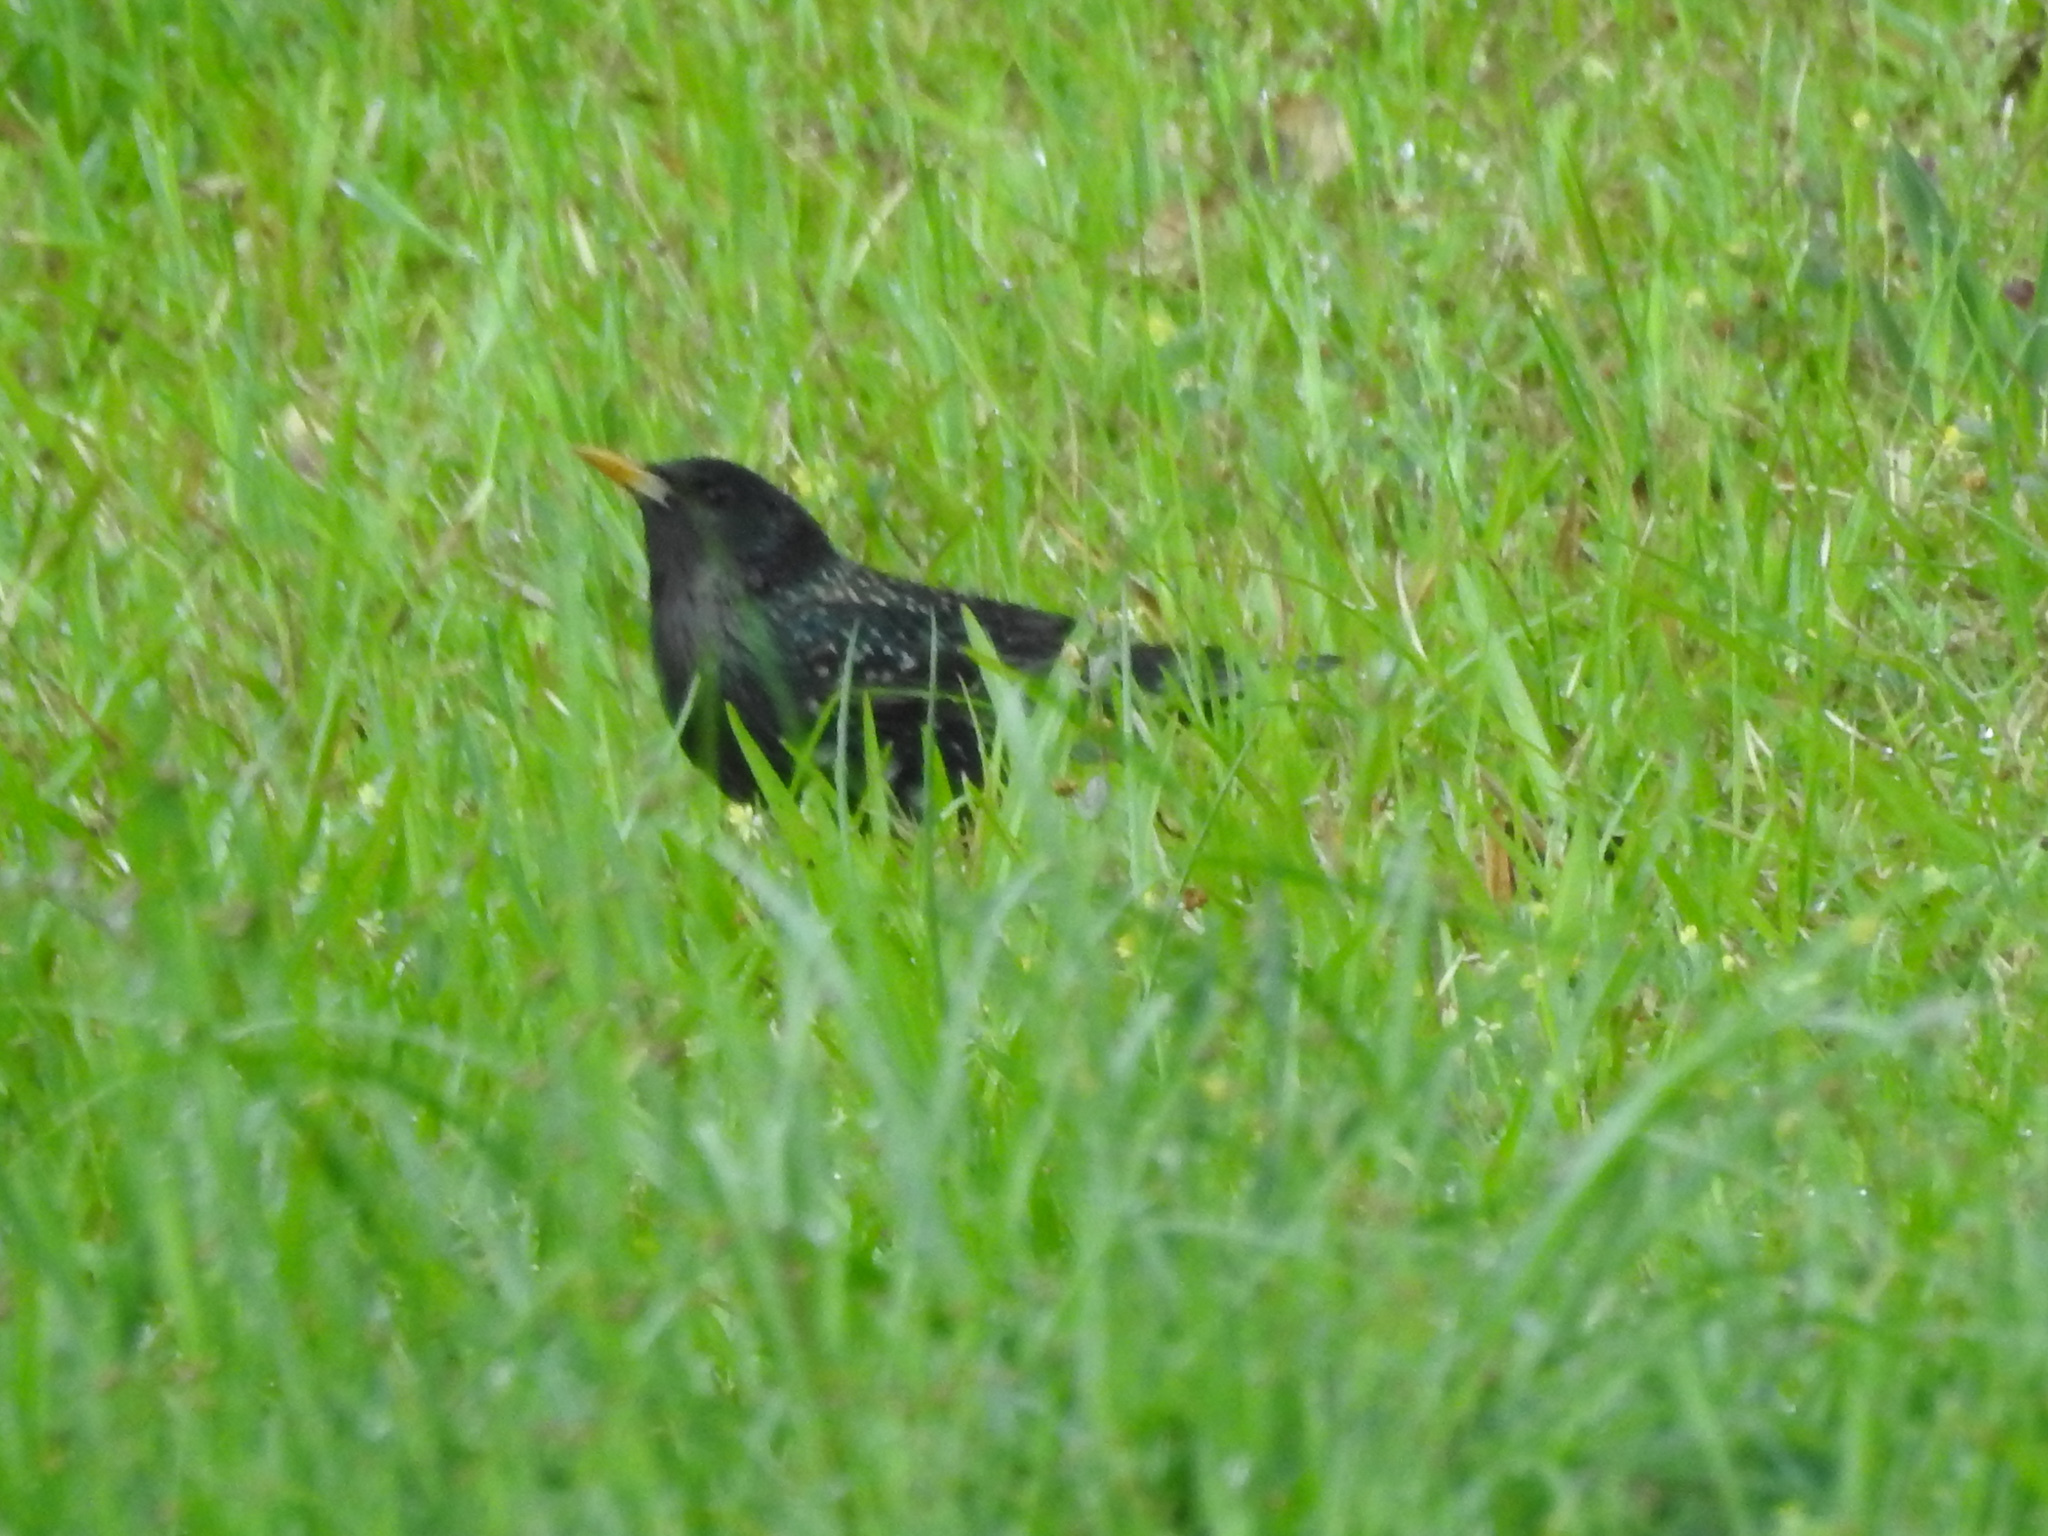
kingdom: Animalia
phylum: Chordata
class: Aves
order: Passeriformes
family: Sturnidae
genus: Sturnus
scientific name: Sturnus vulgaris
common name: Common starling
